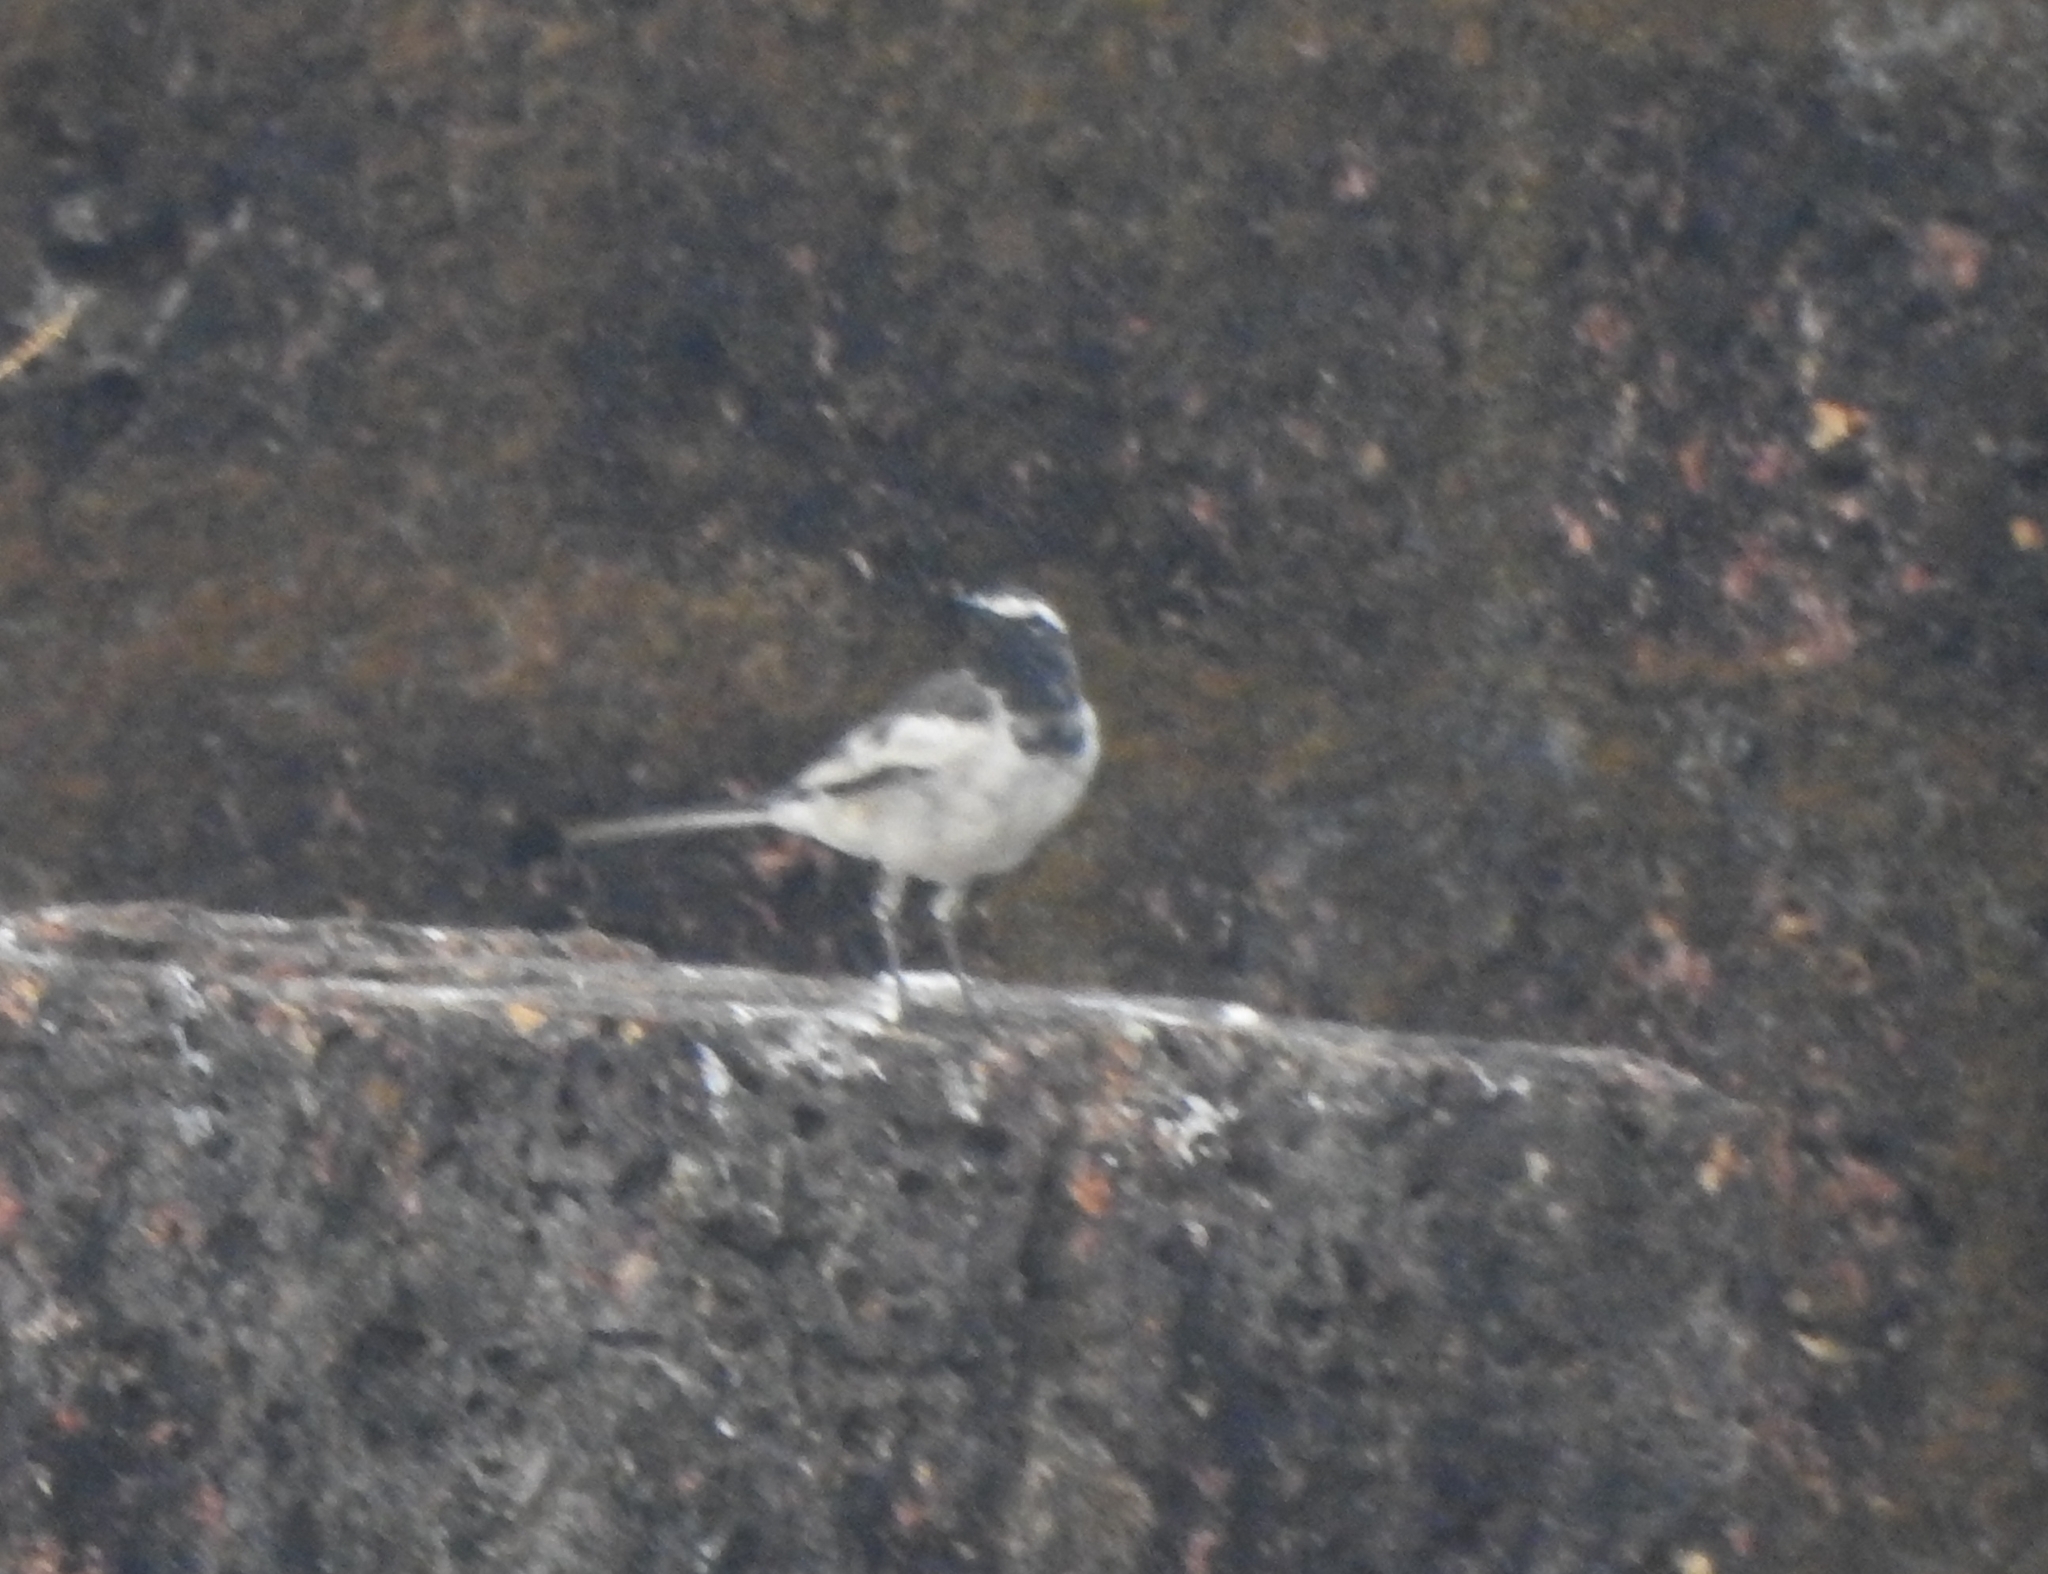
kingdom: Animalia
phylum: Chordata
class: Aves
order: Passeriformes
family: Motacillidae
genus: Motacilla
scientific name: Motacilla maderaspatensis
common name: White-browed wagtail
